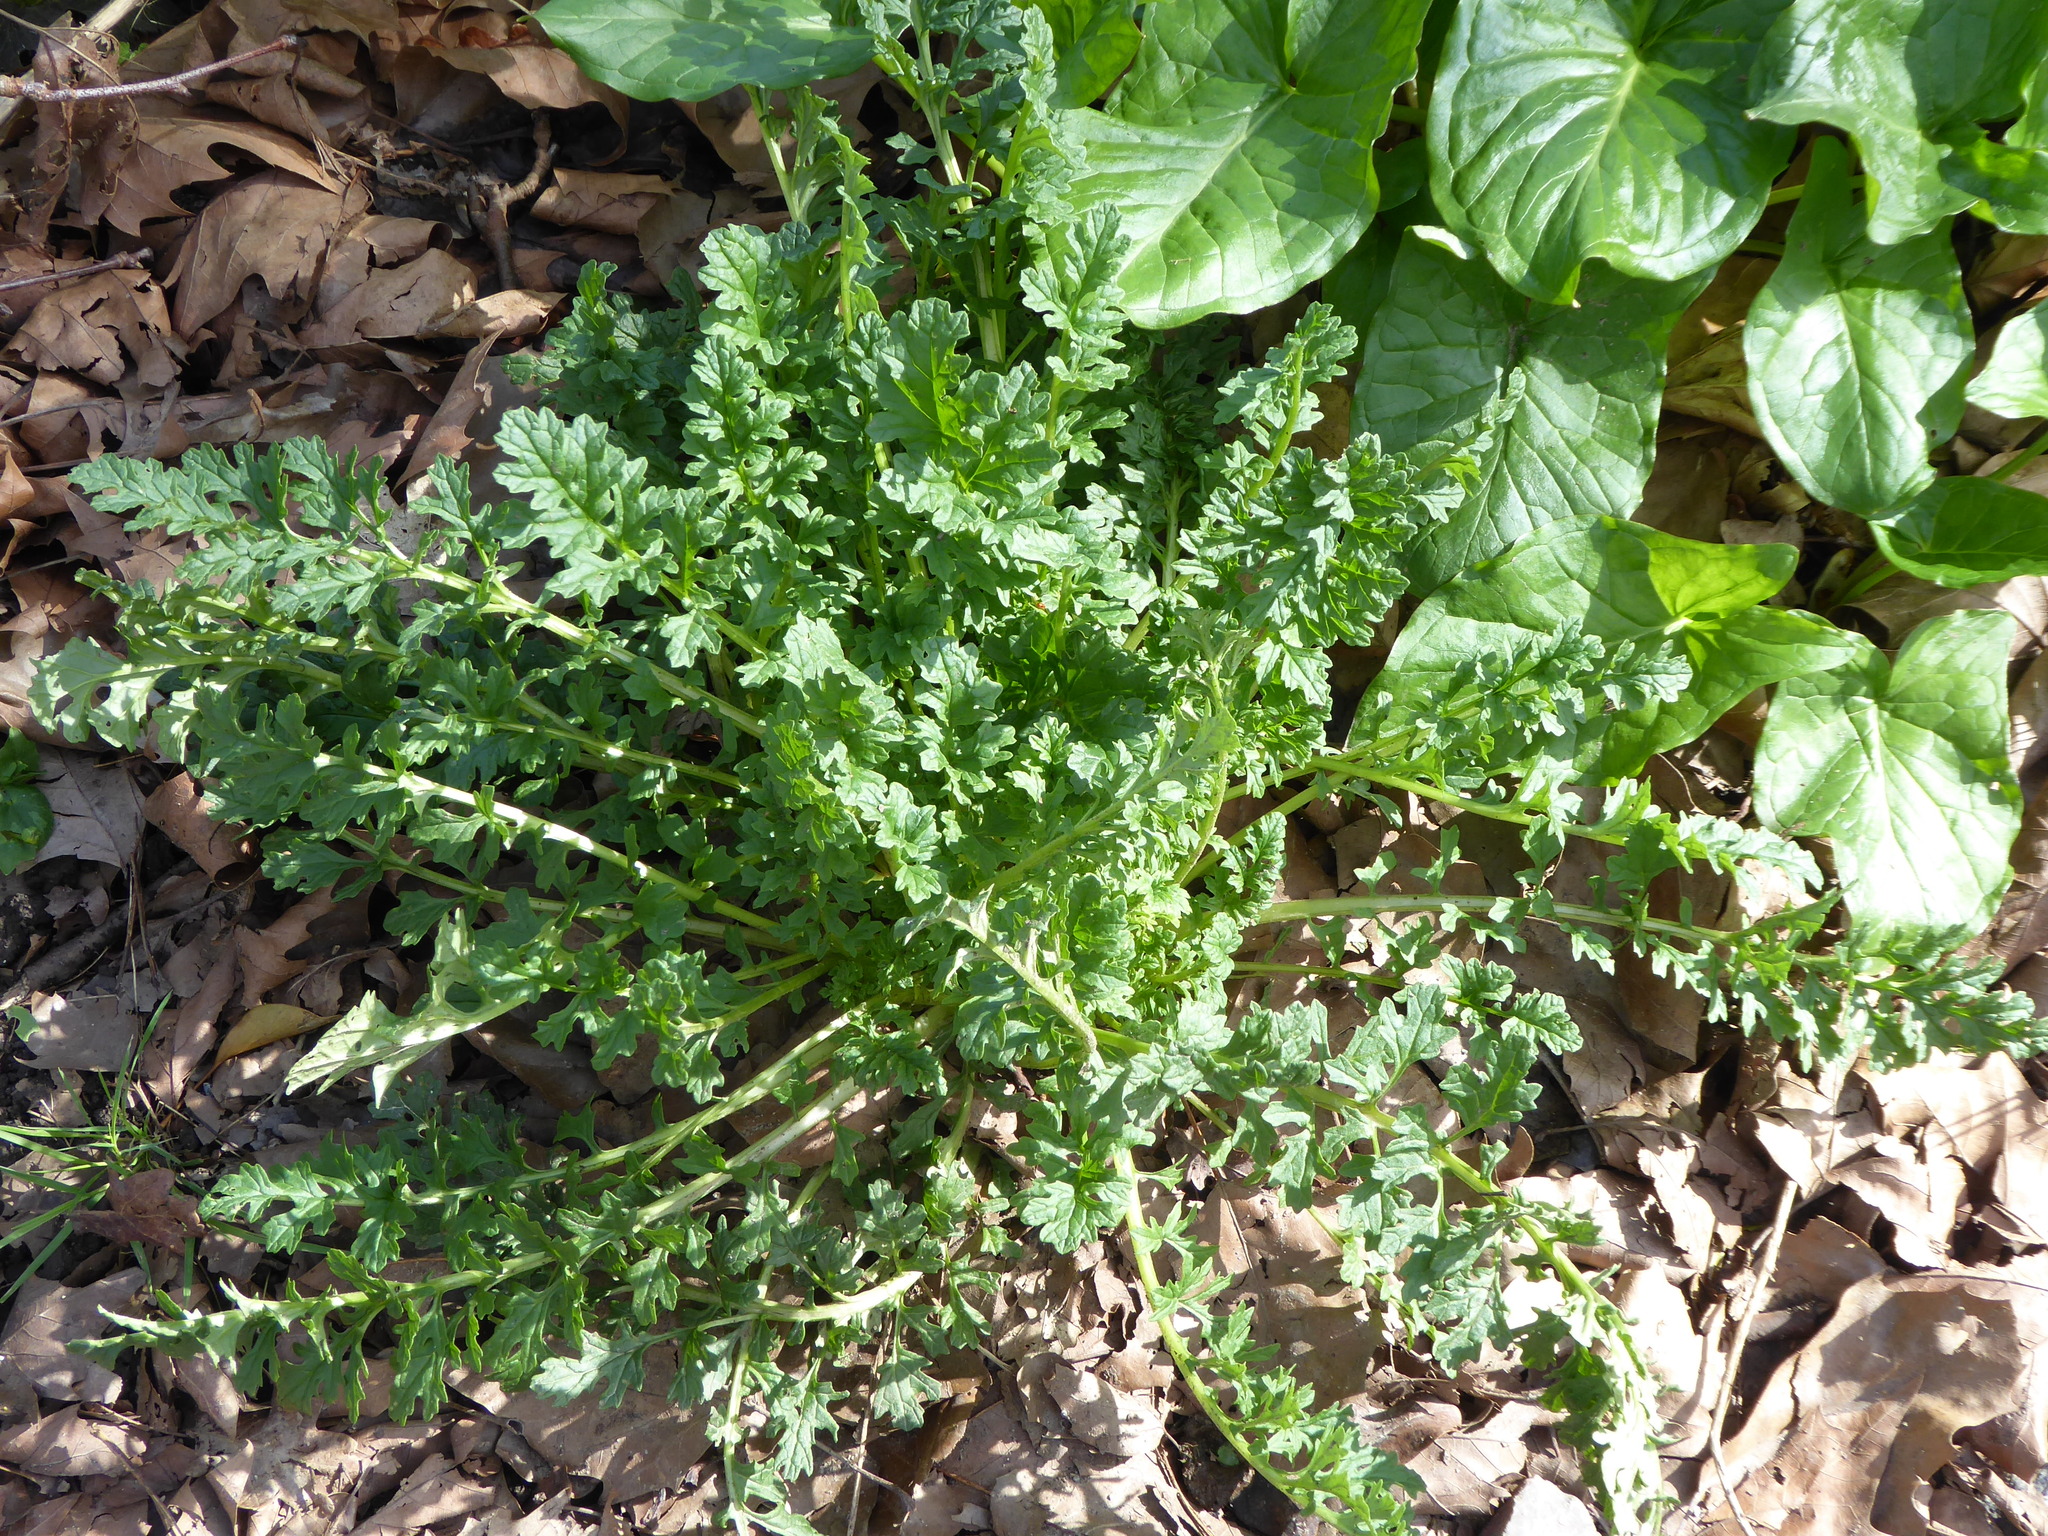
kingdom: Plantae
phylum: Tracheophyta
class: Magnoliopsida
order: Asterales
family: Asteraceae
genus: Jacobaea
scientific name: Jacobaea vulgaris
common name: Stinking willie
